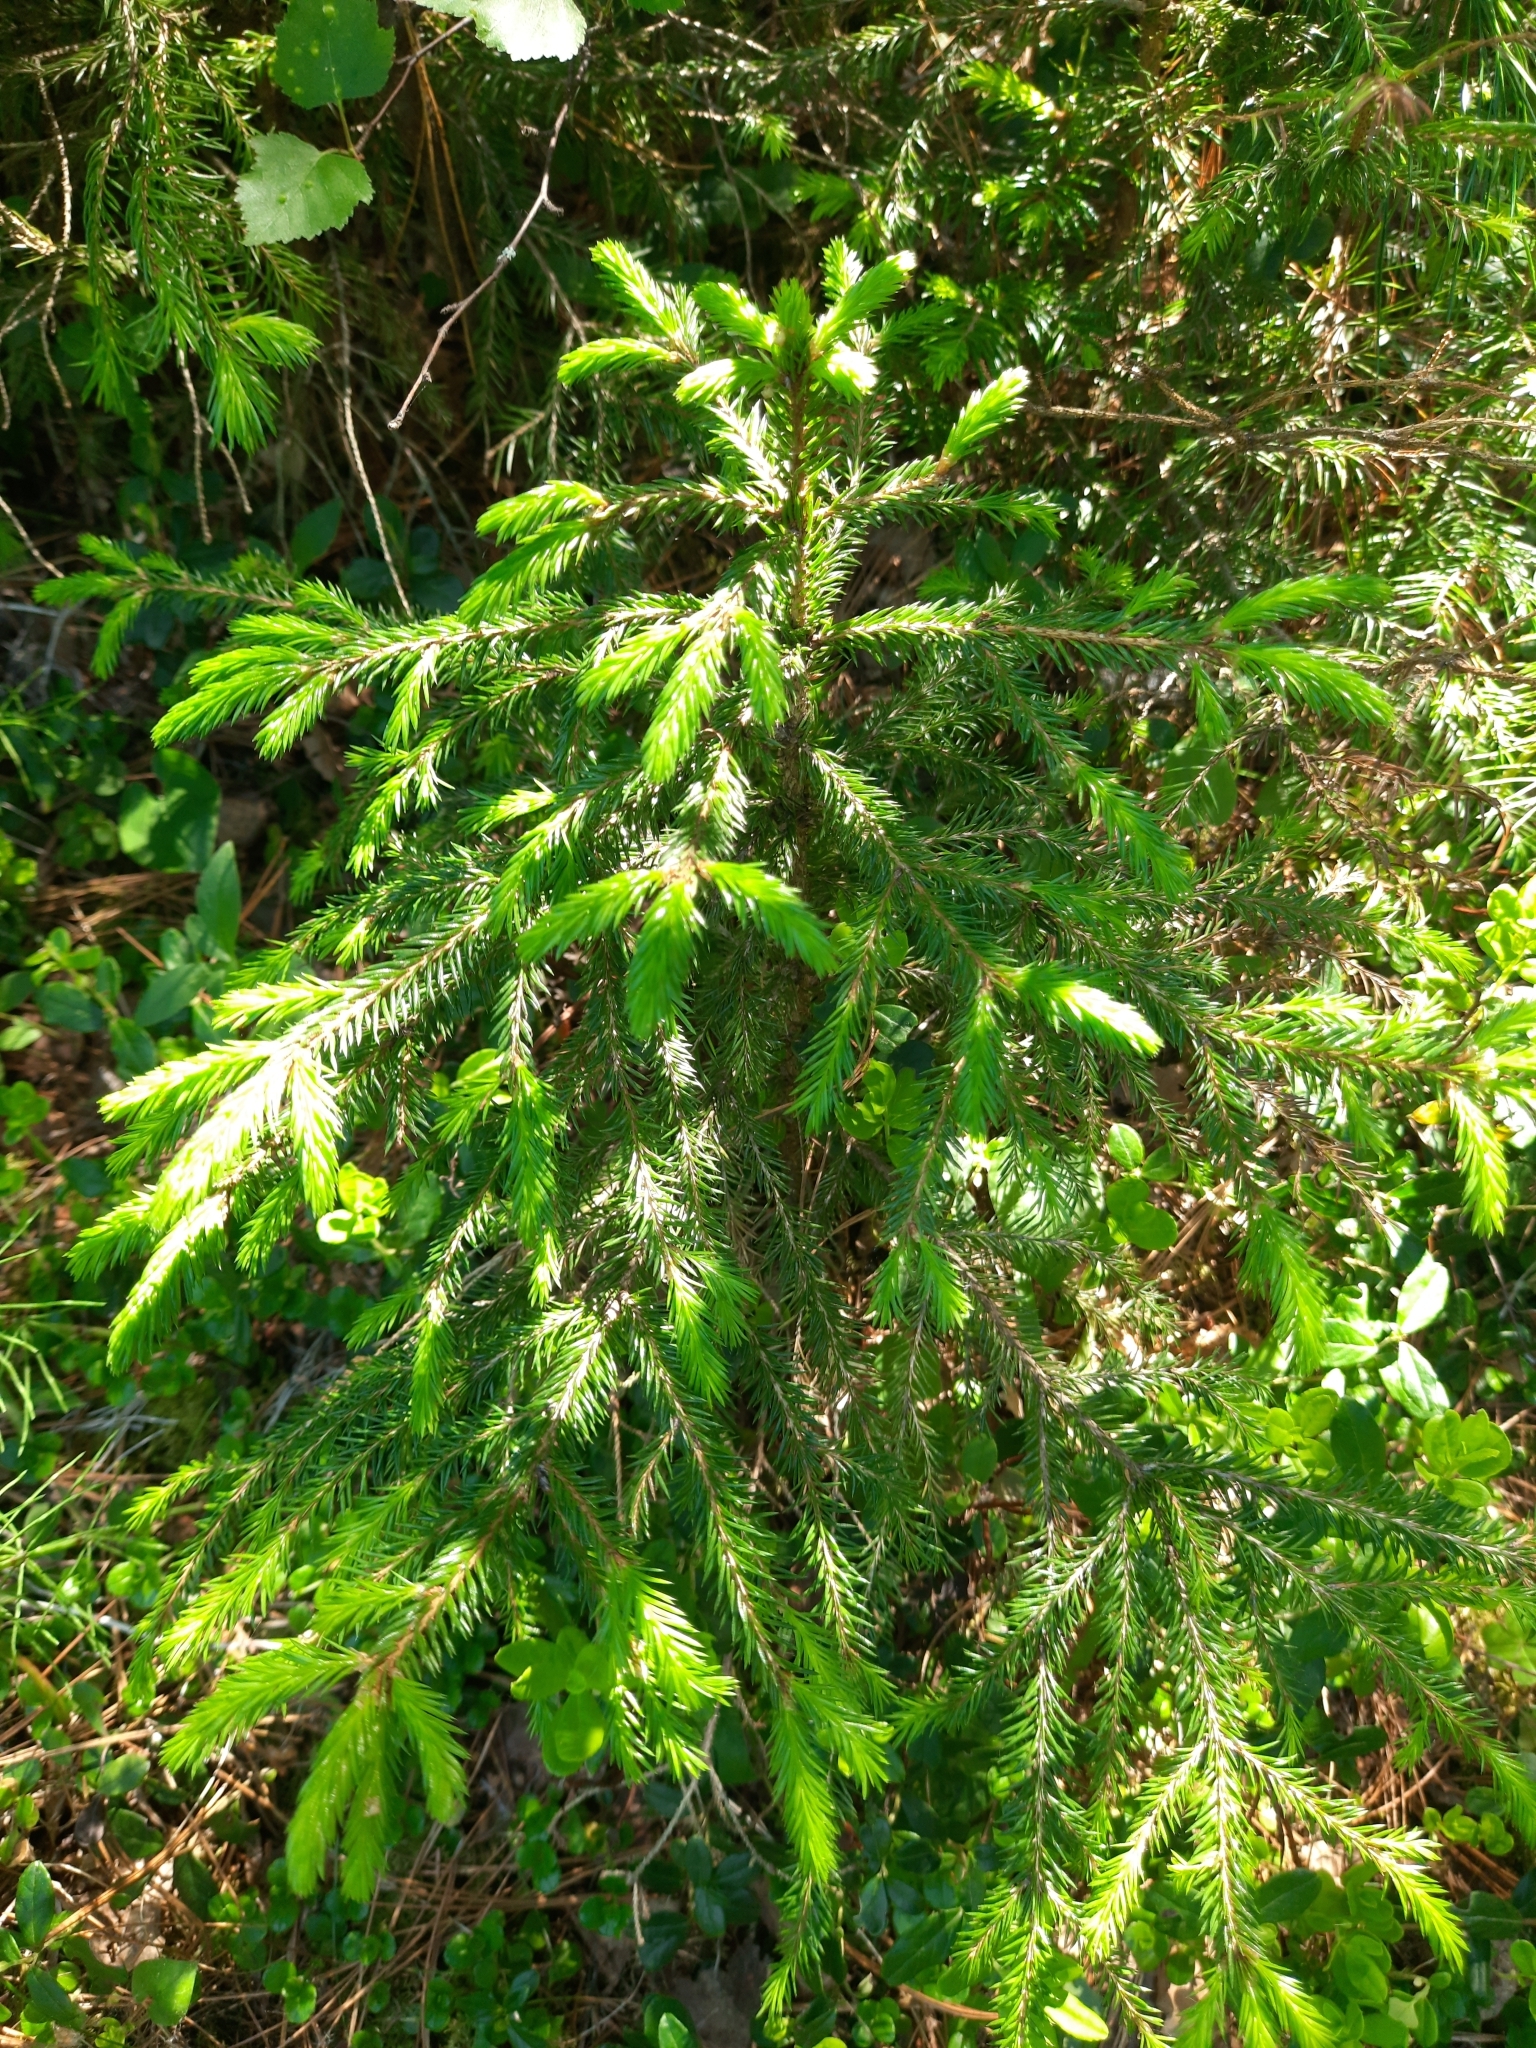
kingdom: Plantae
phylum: Tracheophyta
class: Pinopsida
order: Pinales
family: Pinaceae
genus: Picea
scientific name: Picea obovata
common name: Siberian spruce
